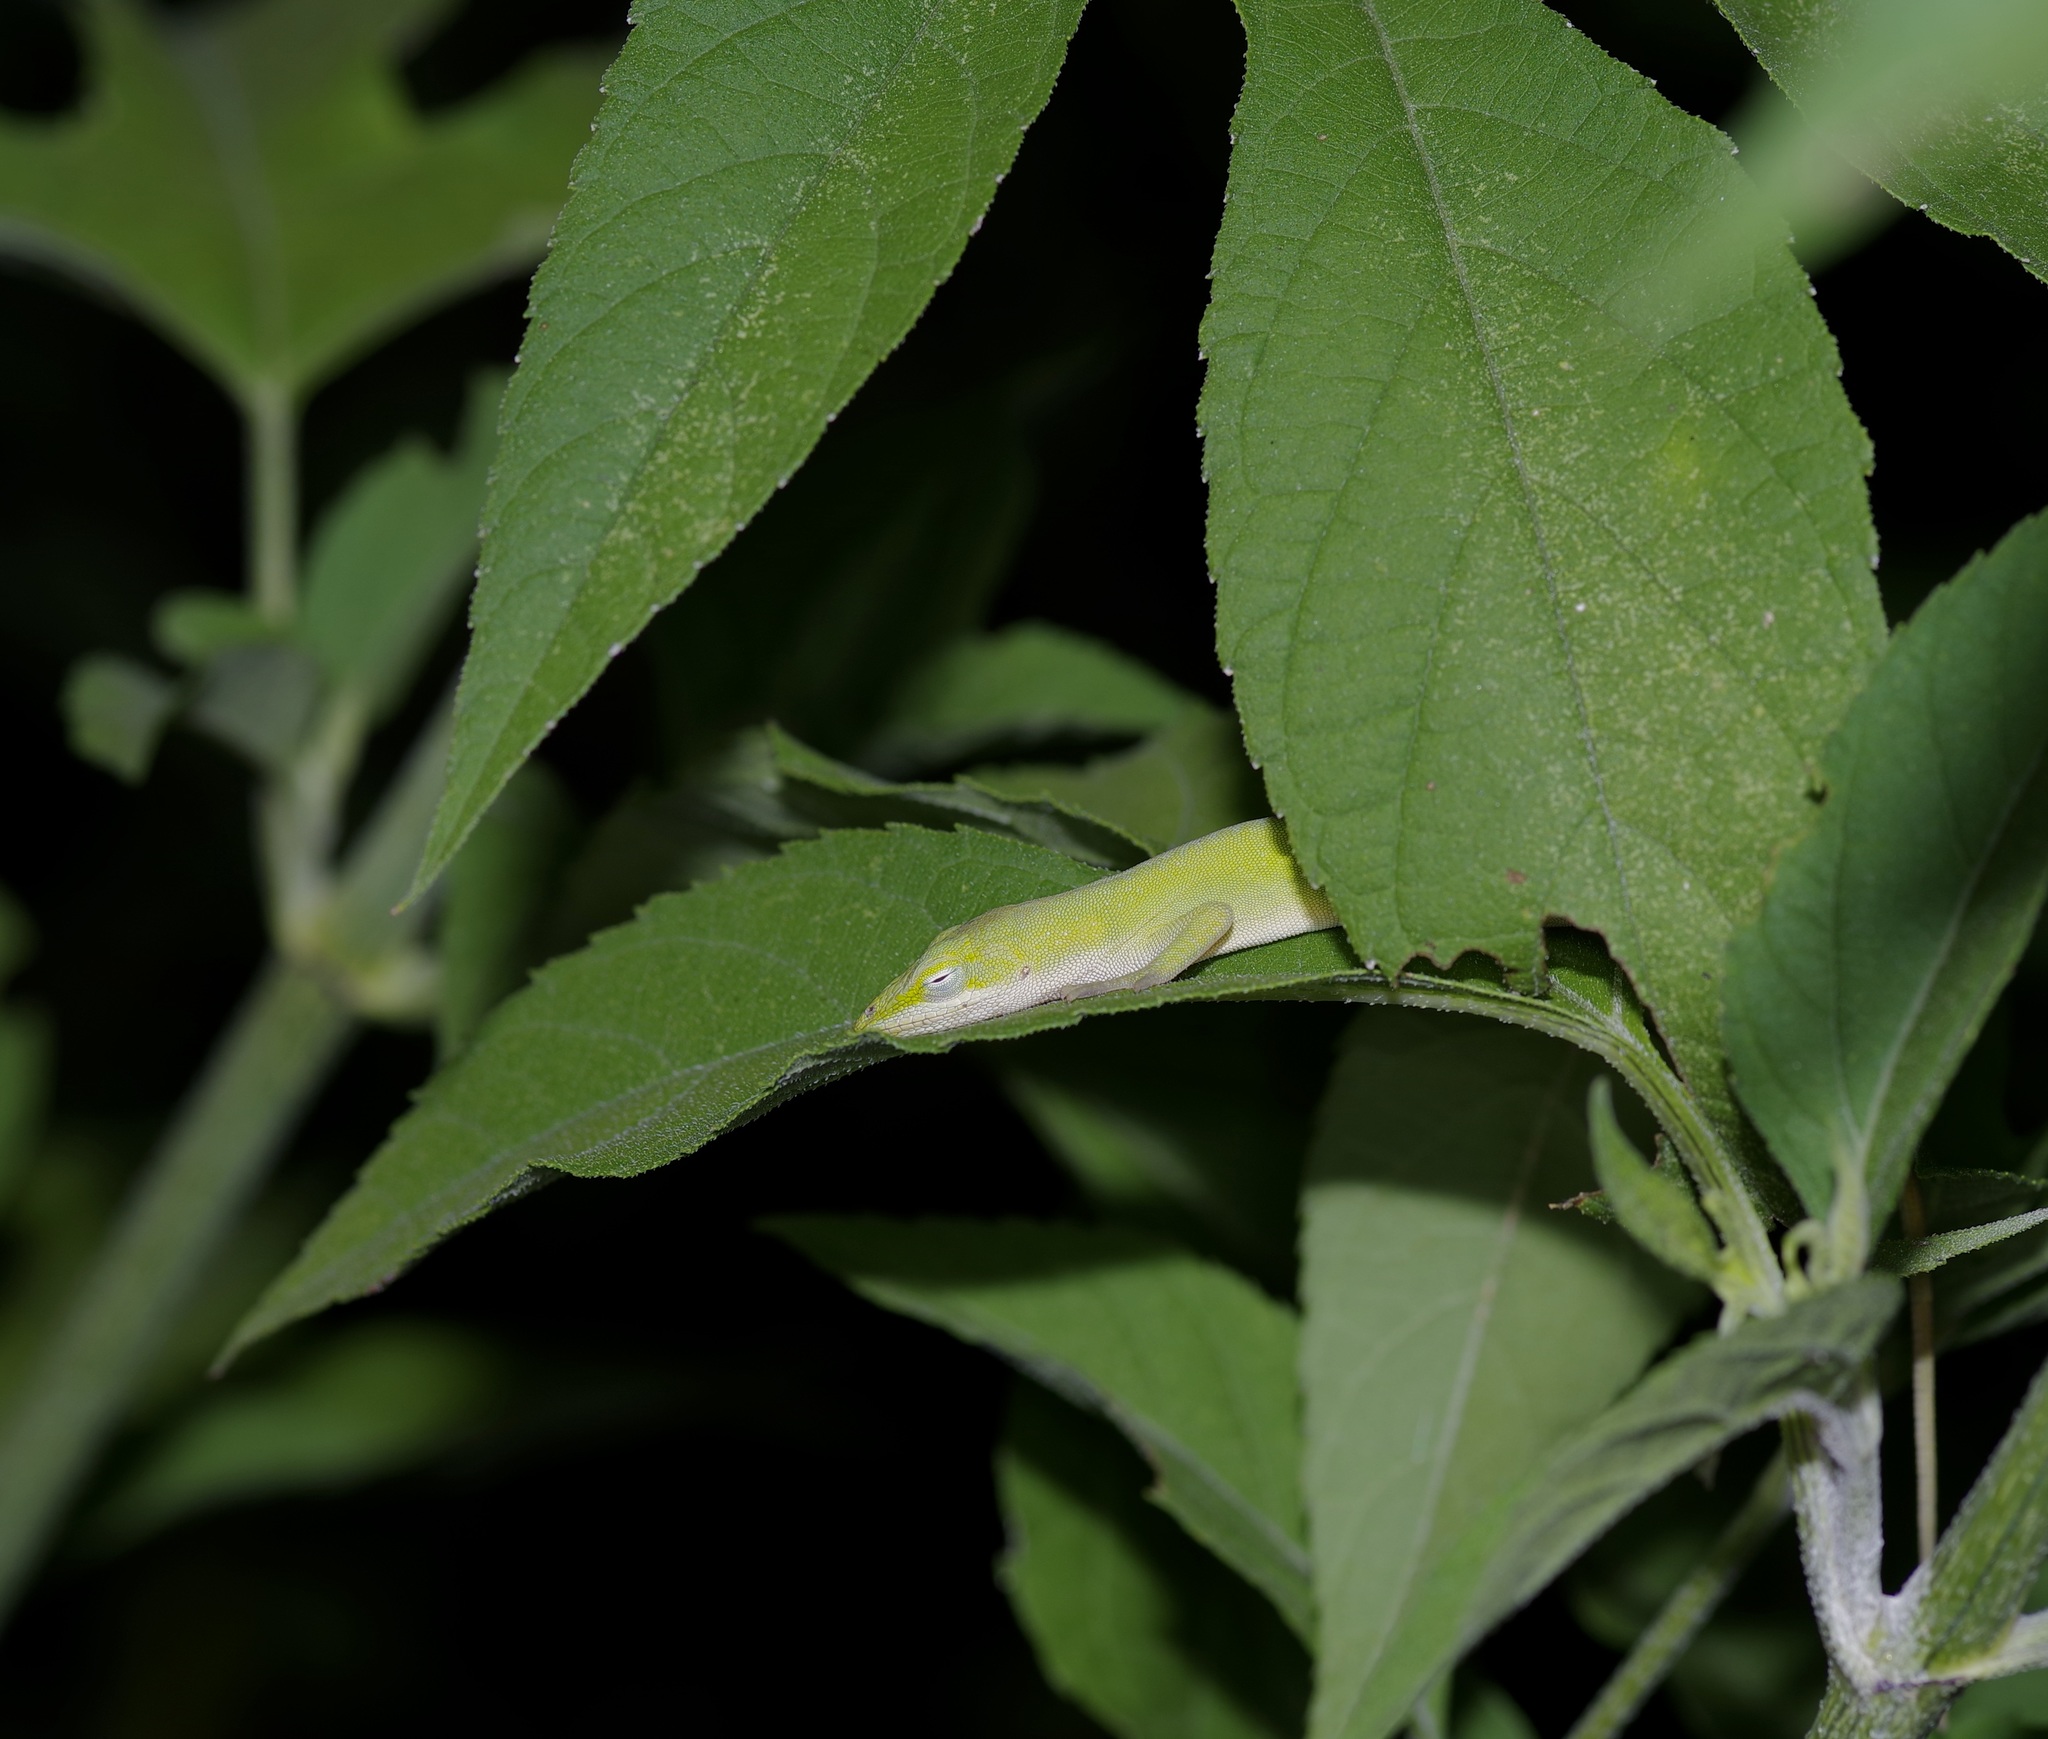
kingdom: Animalia
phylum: Chordata
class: Squamata
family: Dactyloidae
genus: Anolis
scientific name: Anolis carolinensis
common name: Green anole
